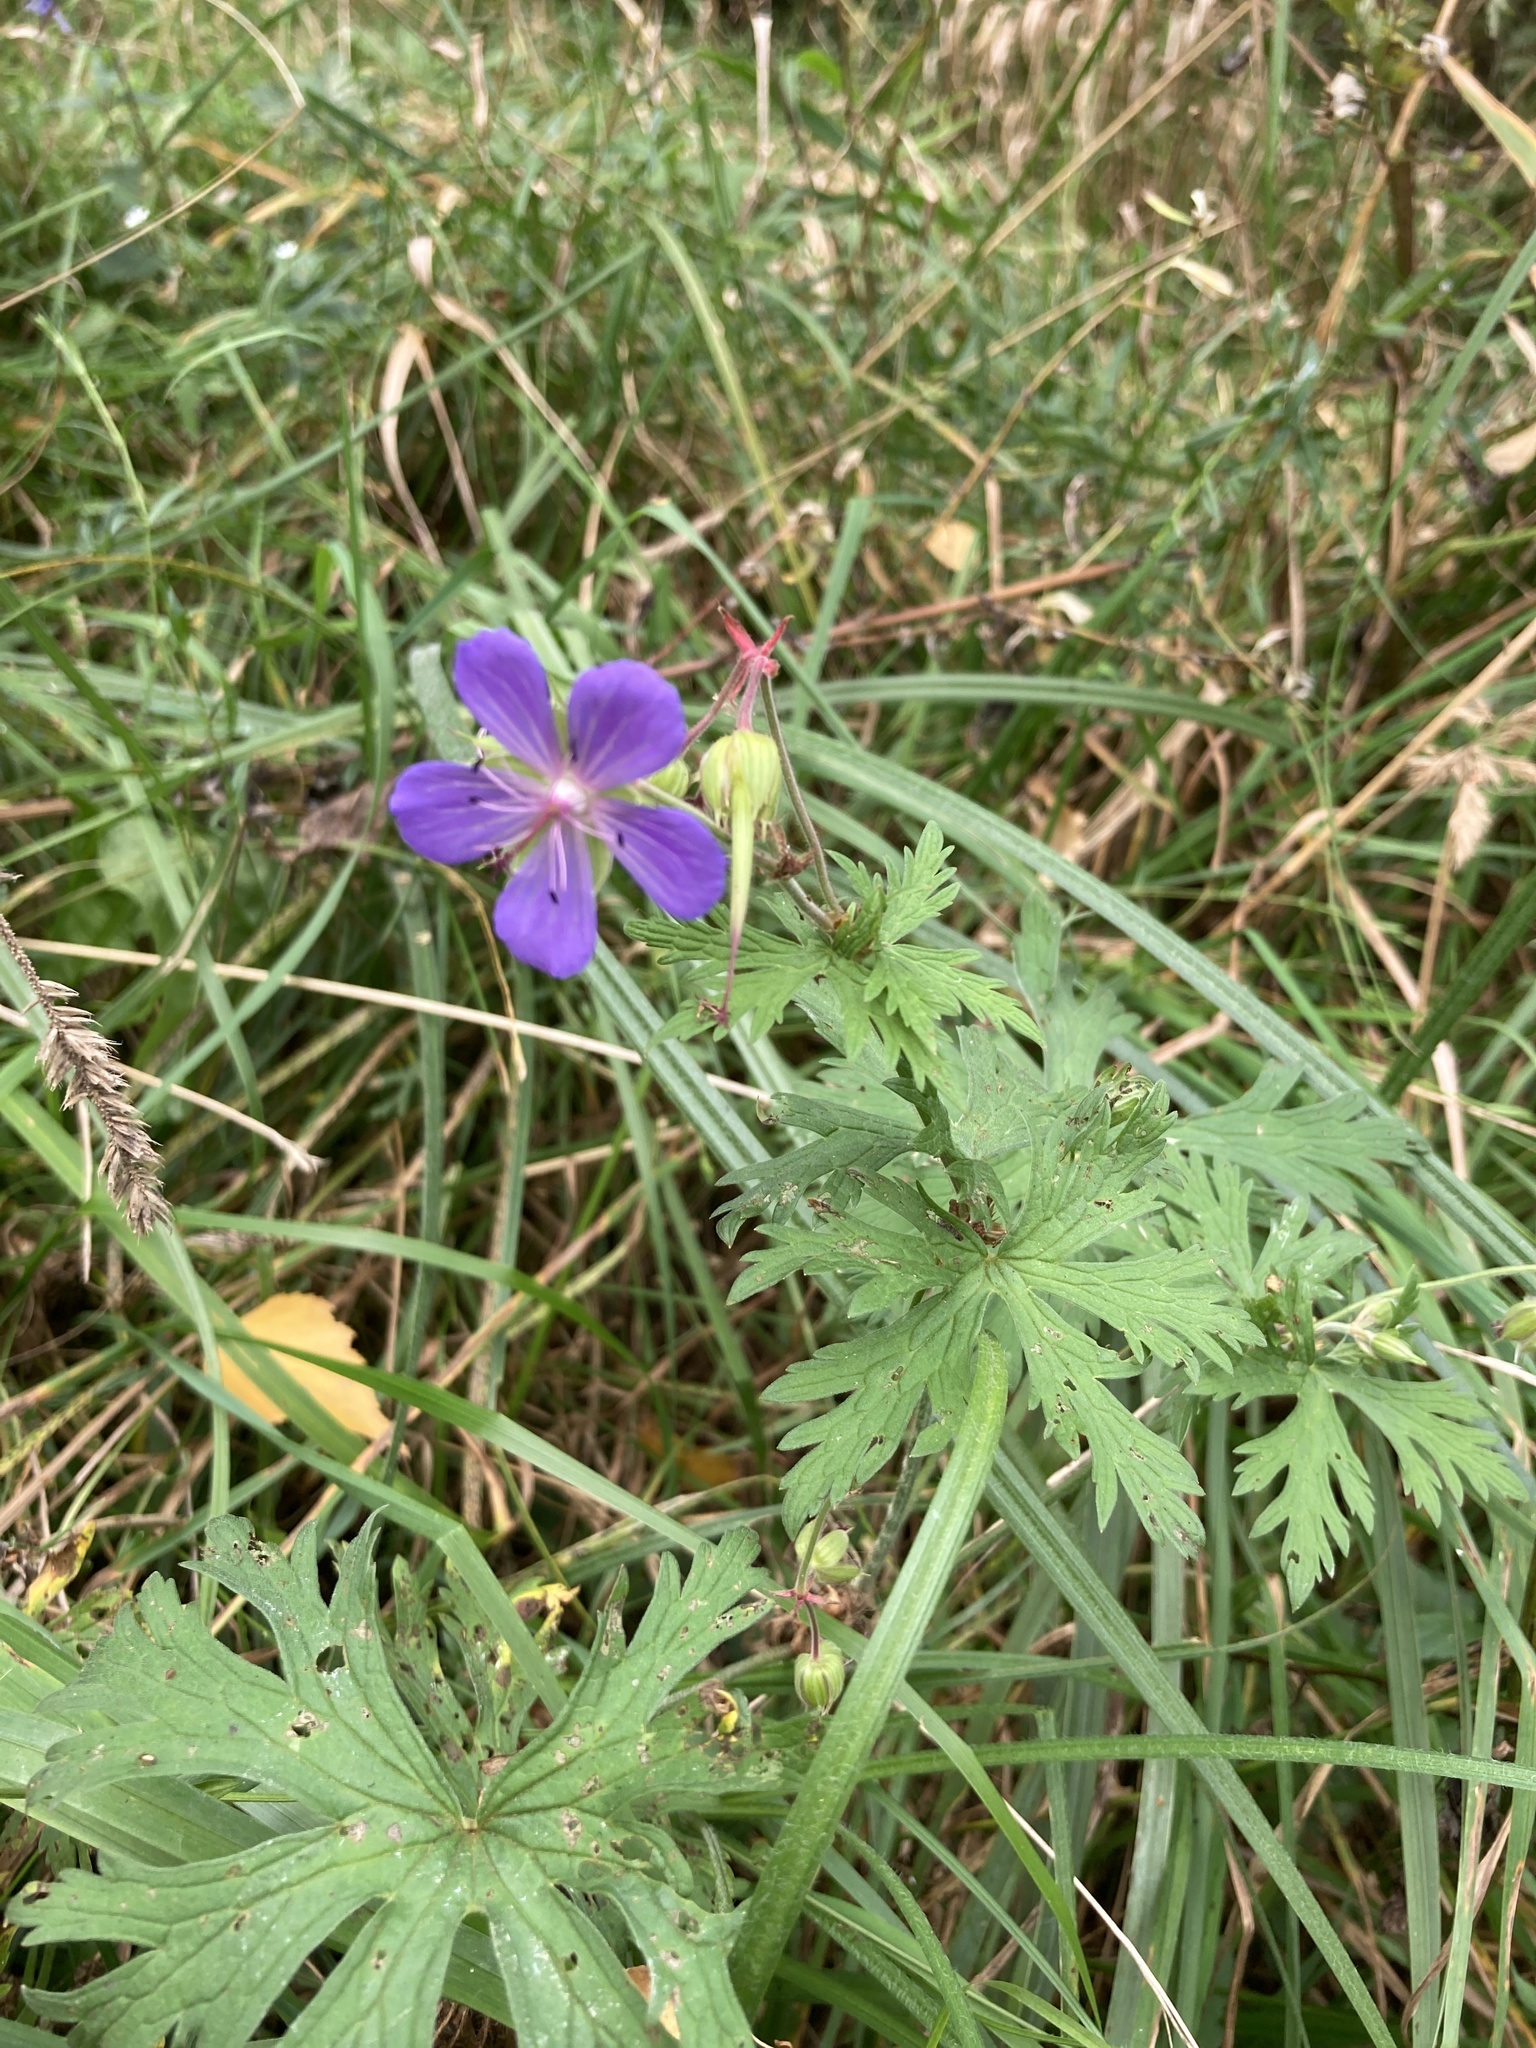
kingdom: Plantae
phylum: Tracheophyta
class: Magnoliopsida
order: Geraniales
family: Geraniaceae
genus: Geranium
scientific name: Geranium pratense
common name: Meadow crane's-bill
